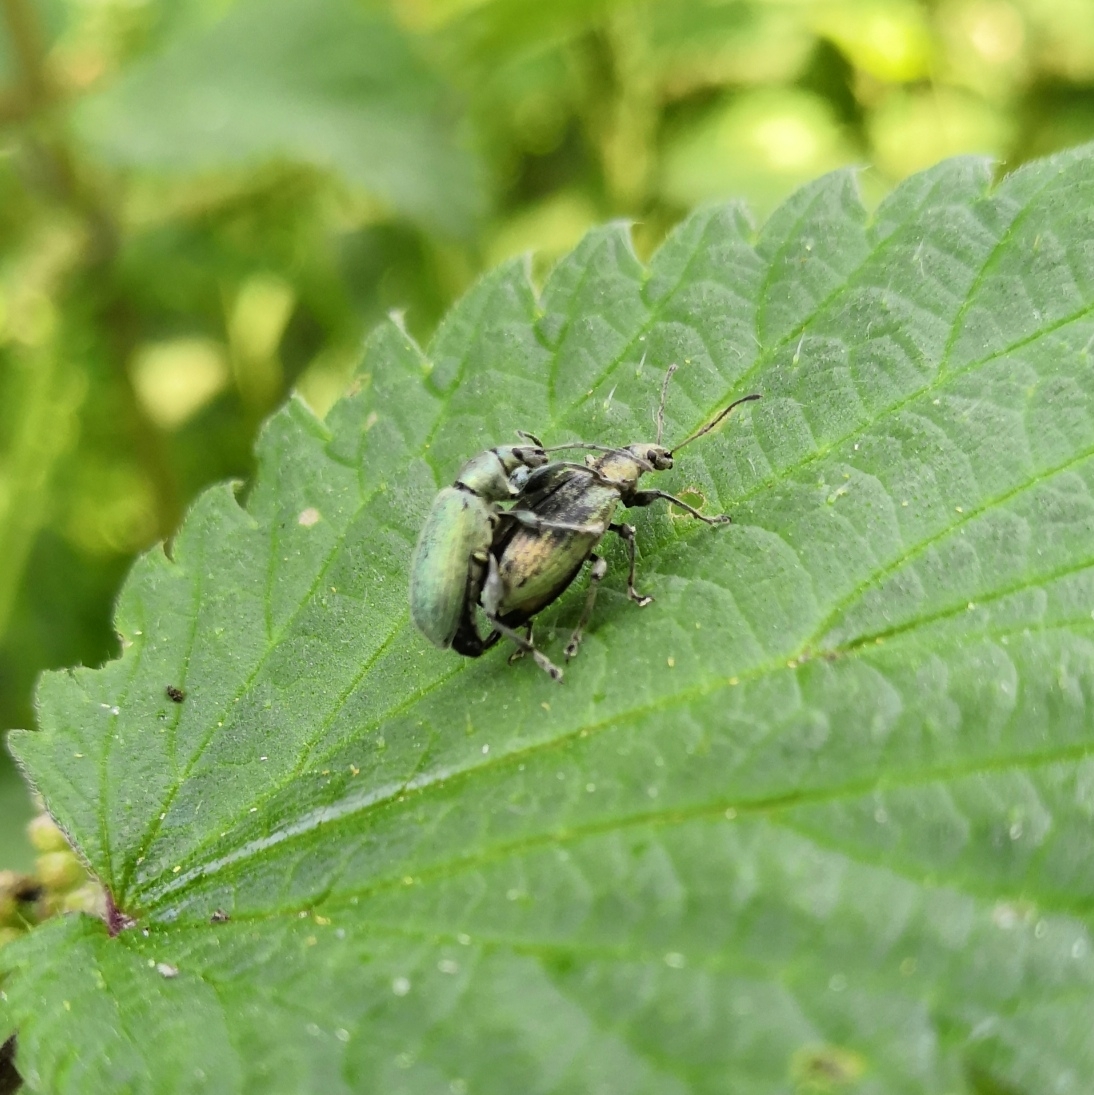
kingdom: Animalia
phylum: Arthropoda
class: Insecta
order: Coleoptera
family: Curculionidae
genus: Phyllobius
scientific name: Phyllobius pomaceus
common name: Green nettle weevil
